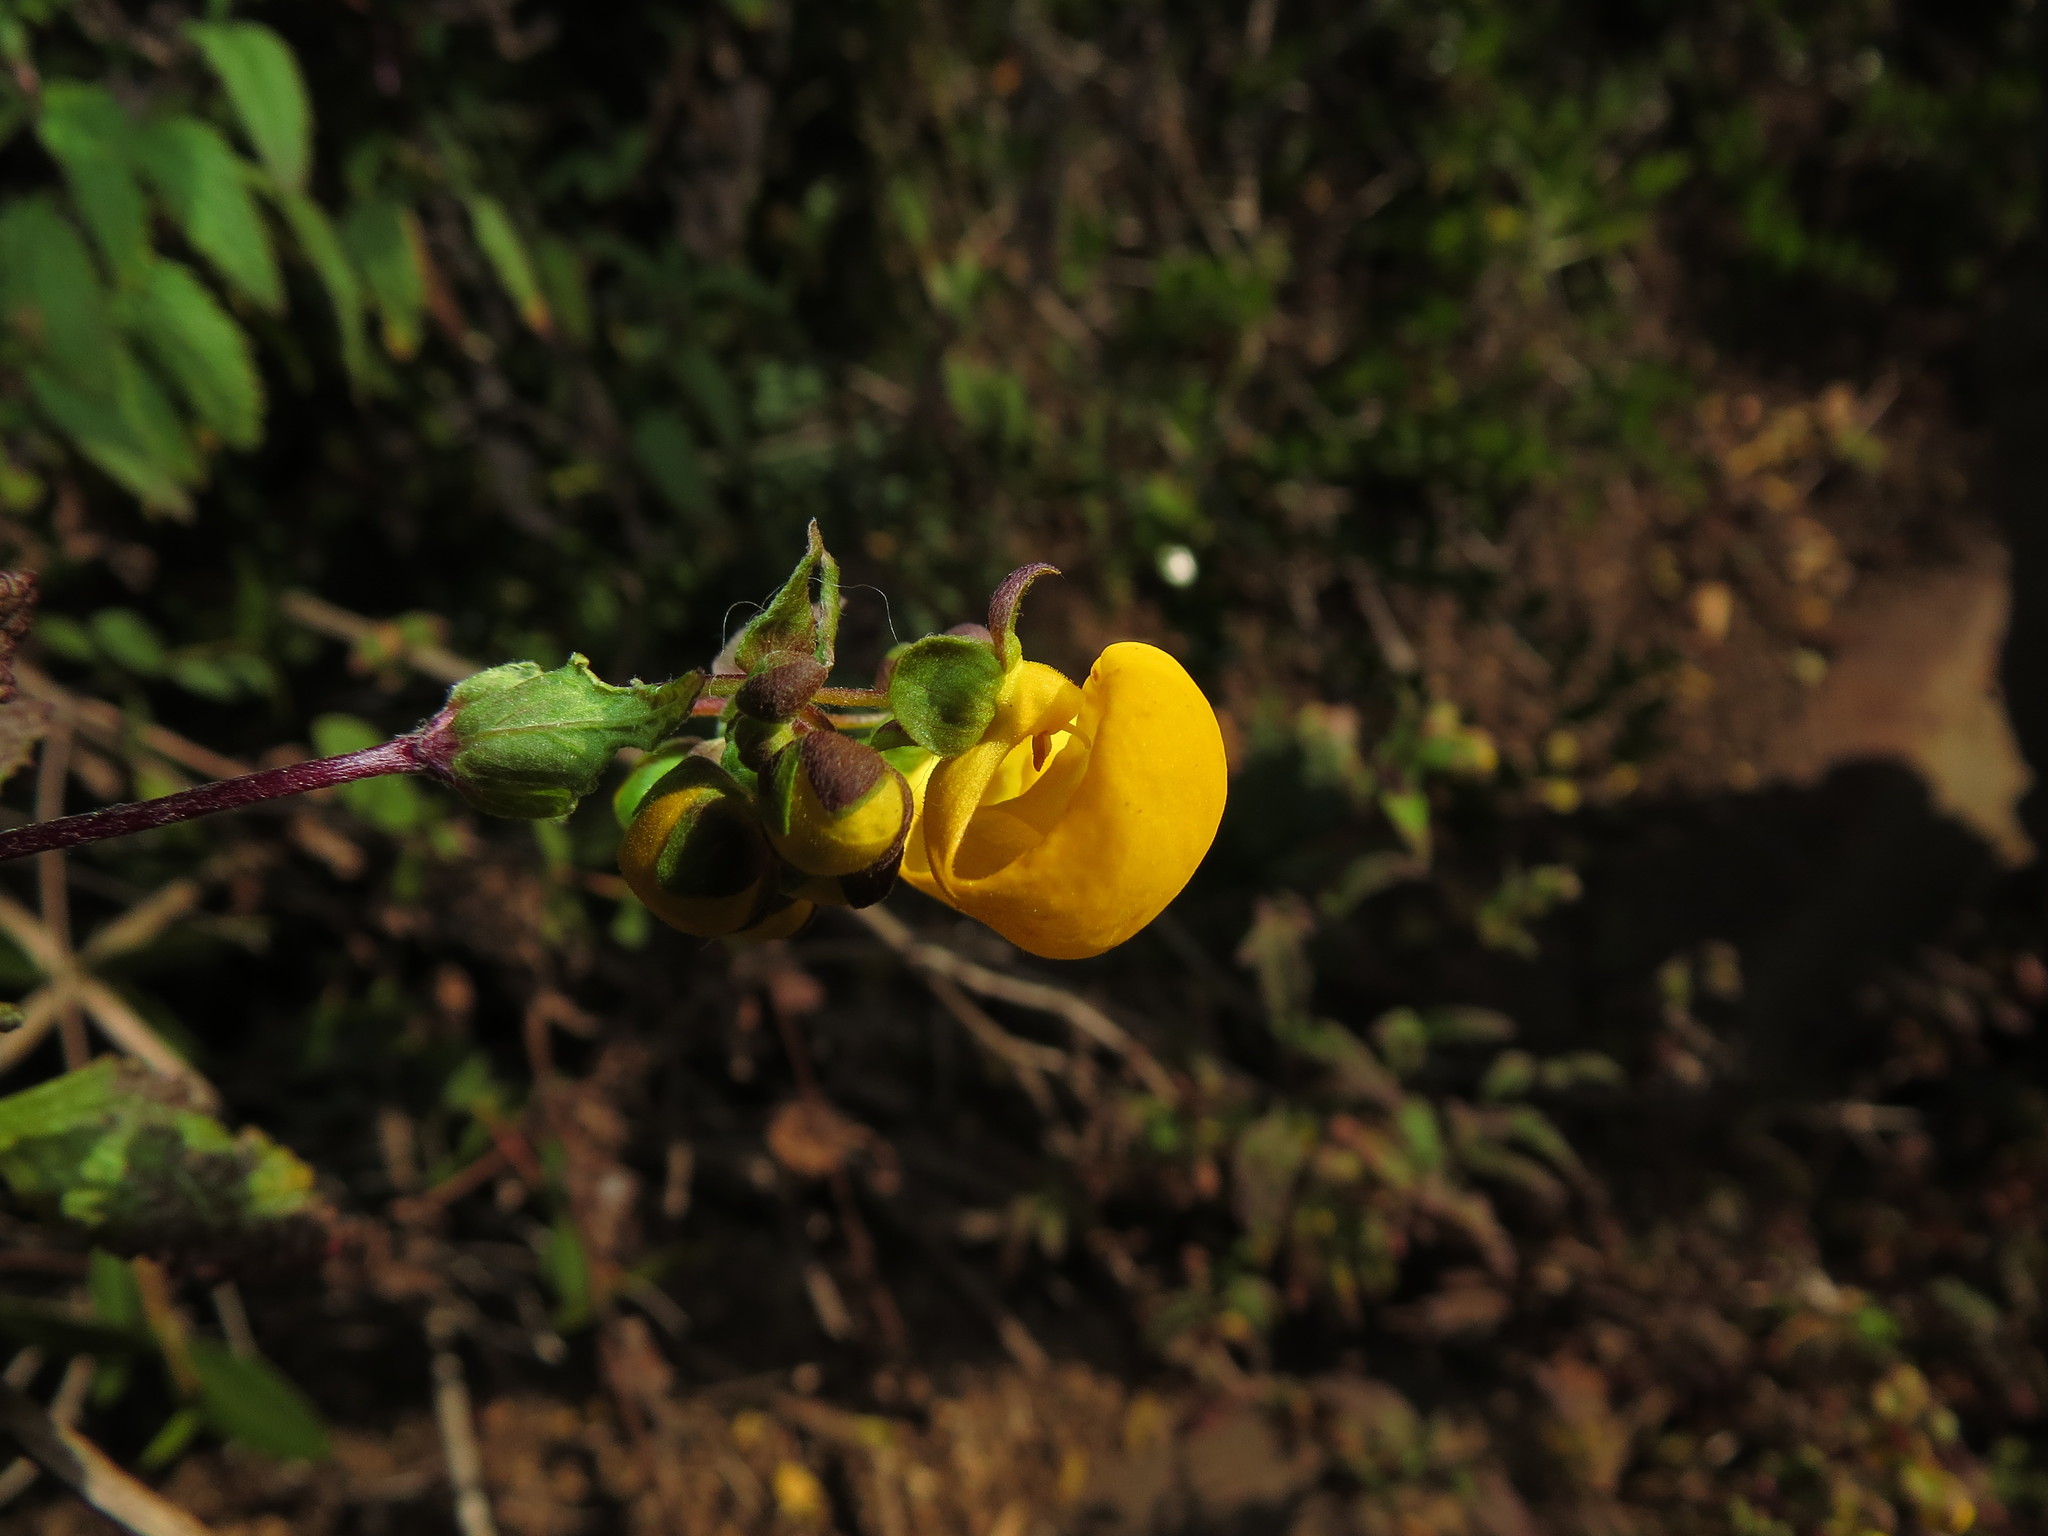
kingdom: Plantae
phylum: Tracheophyta
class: Magnoliopsida
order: Lamiales
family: Calceolariaceae
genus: Calceolaria
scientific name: Calceolaria ascendens
